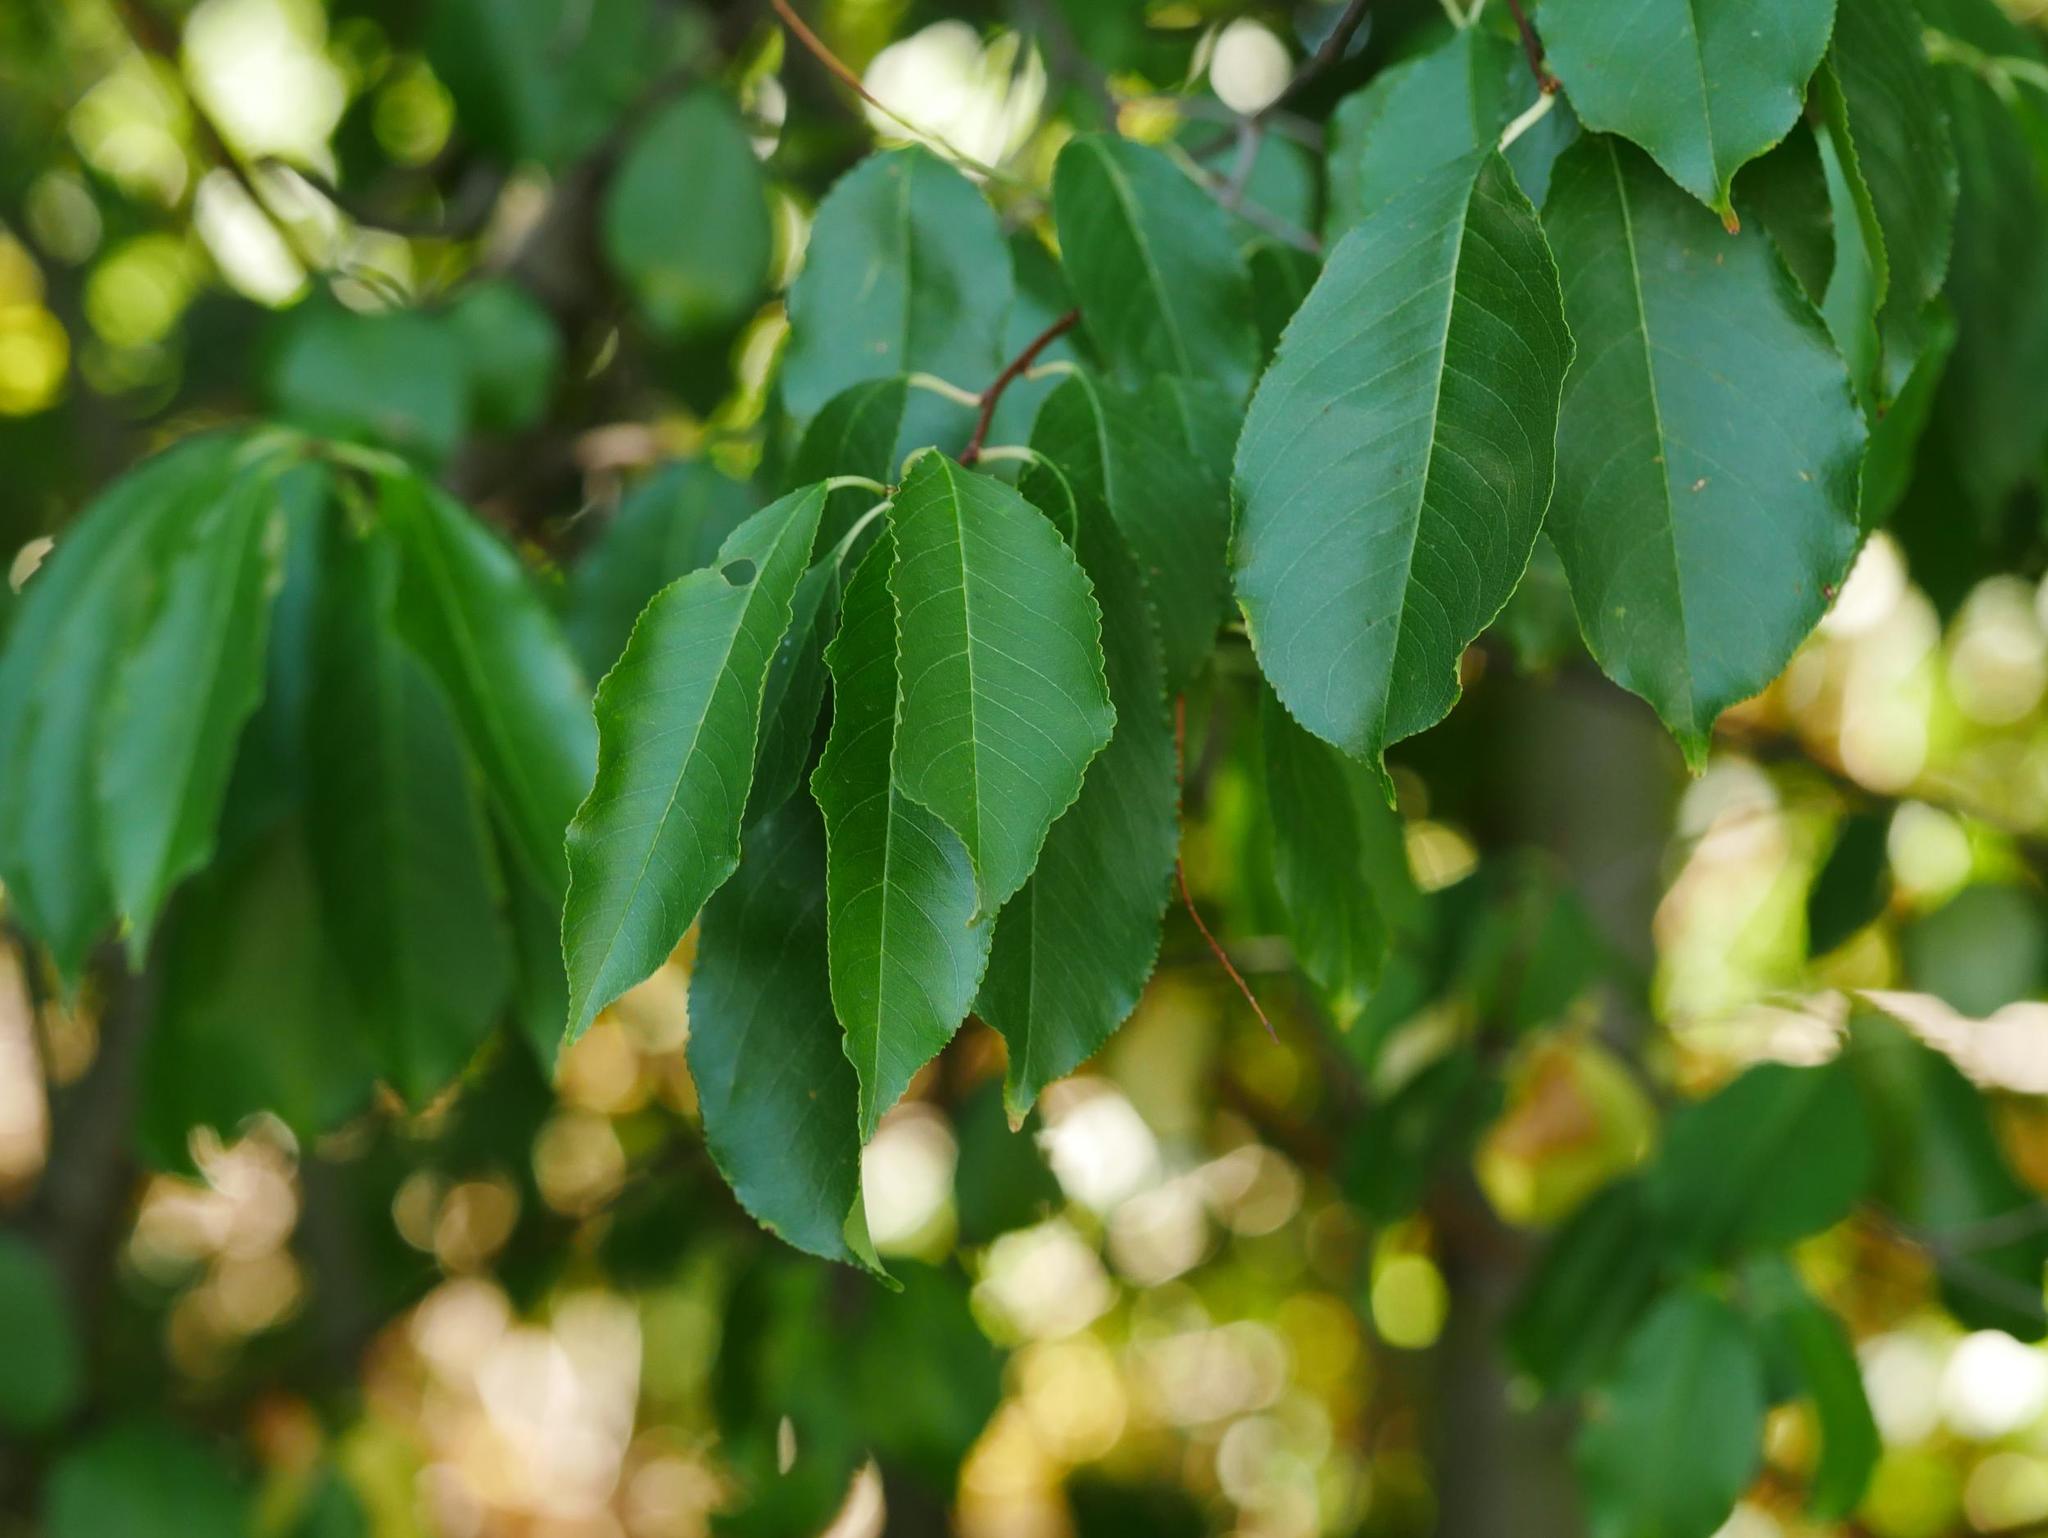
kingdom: Plantae
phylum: Tracheophyta
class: Magnoliopsida
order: Rosales
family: Rosaceae
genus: Prunus
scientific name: Prunus serotina
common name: Black cherry
